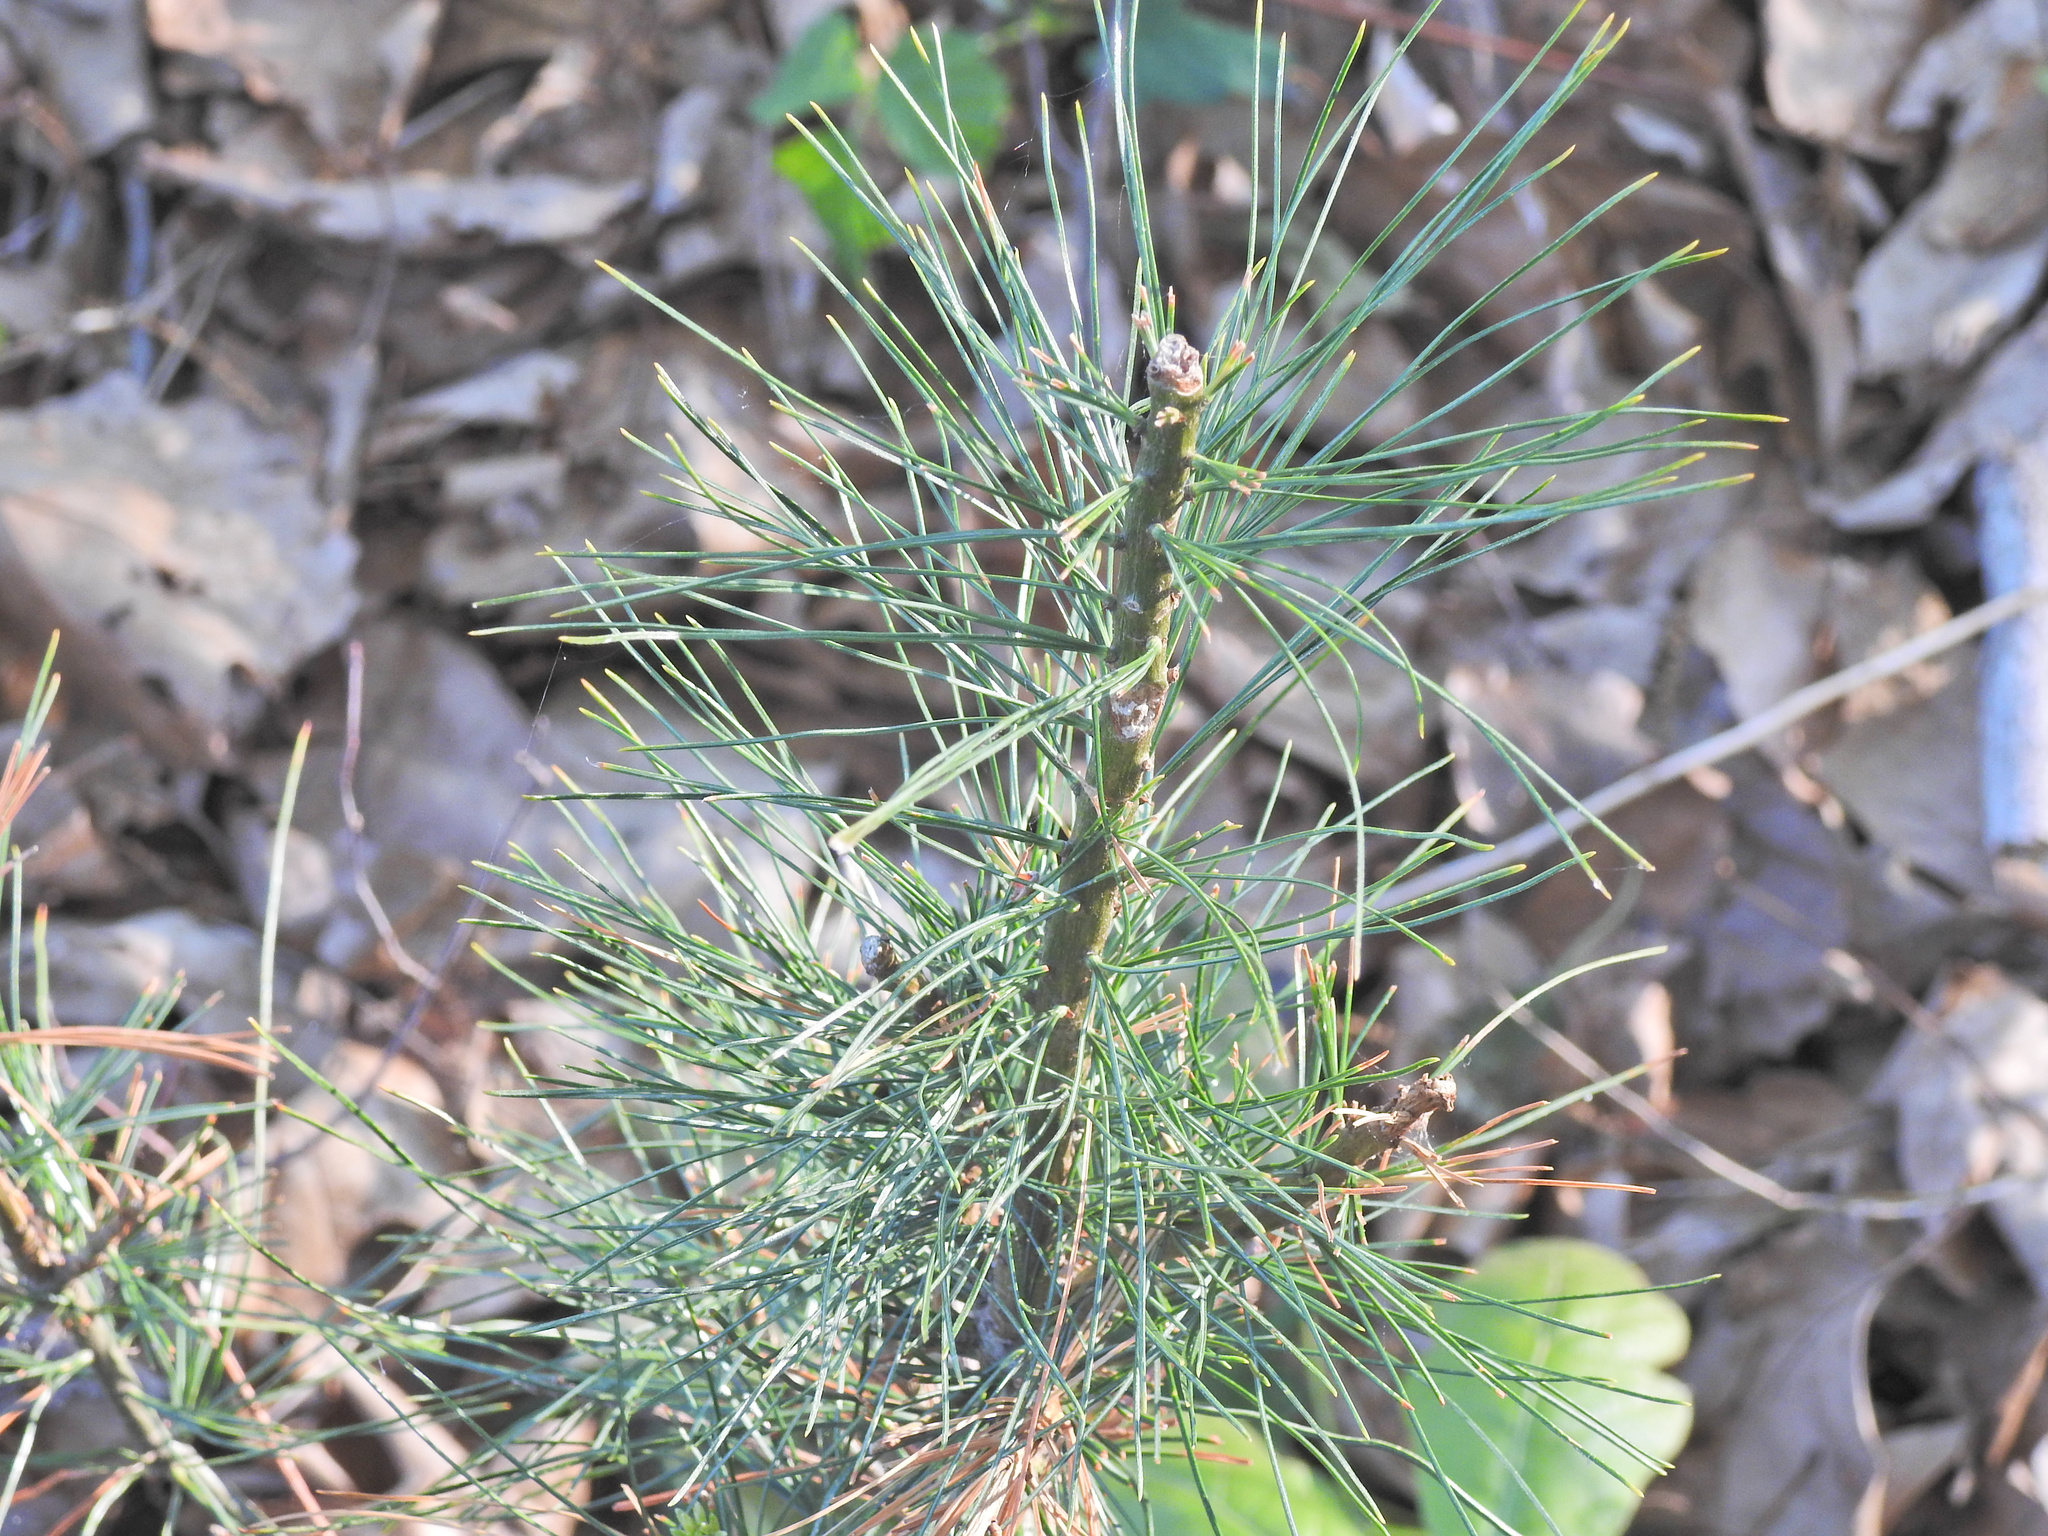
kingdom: Plantae
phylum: Tracheophyta
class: Pinopsida
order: Pinales
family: Pinaceae
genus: Pinus
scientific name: Pinus strobus
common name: Weymouth pine
